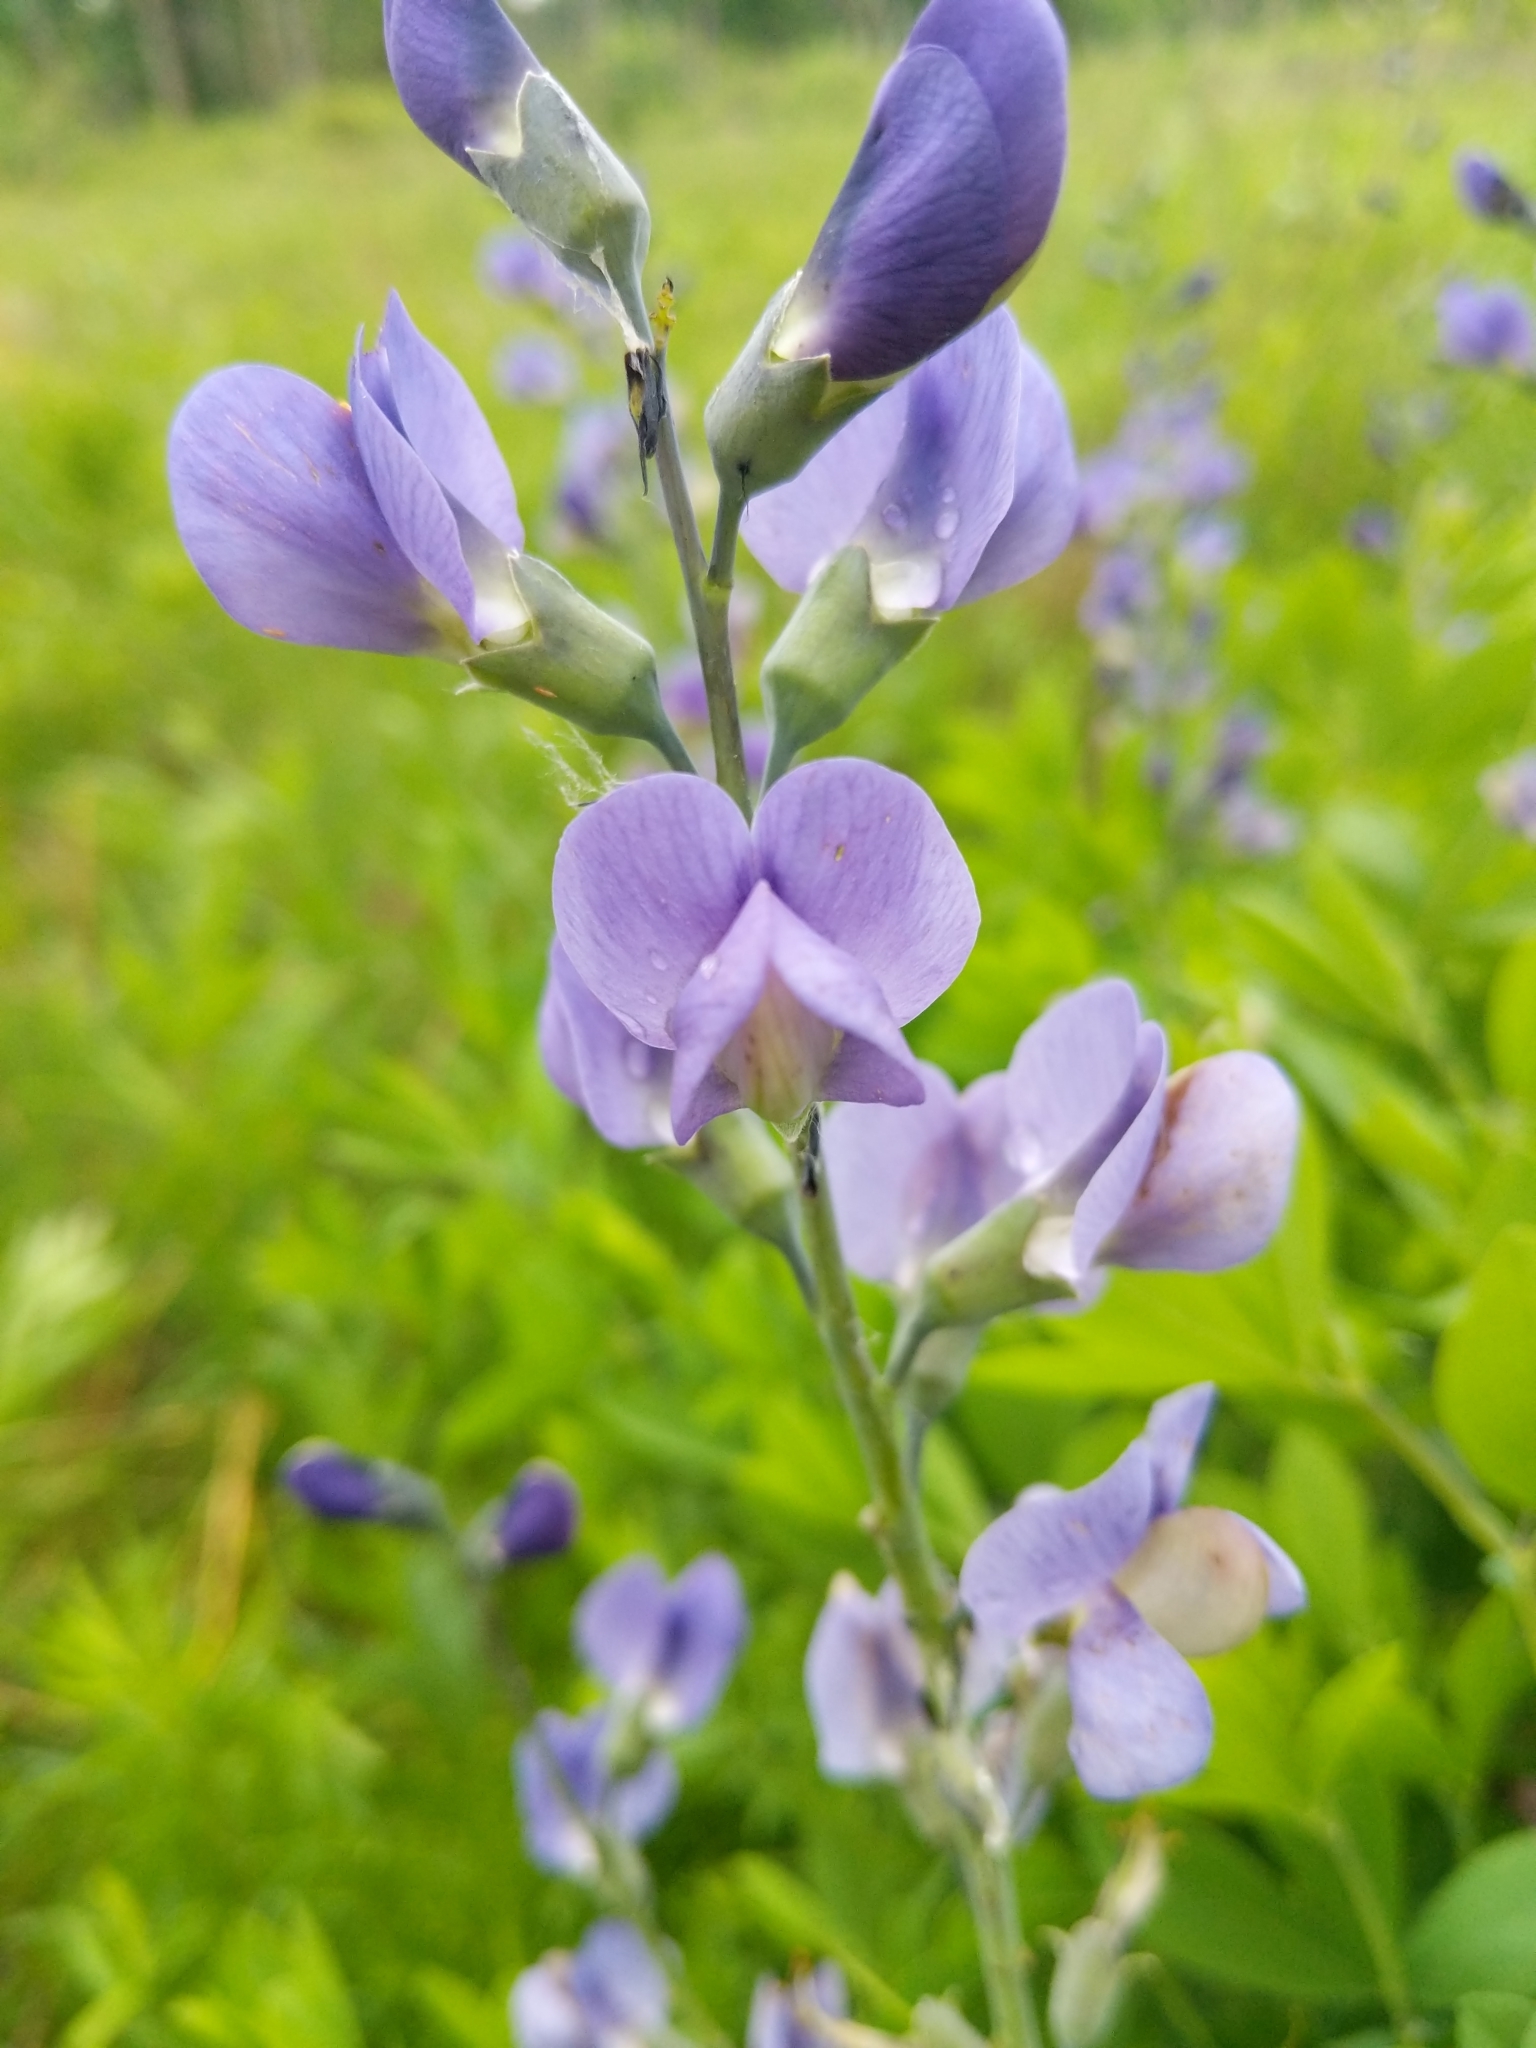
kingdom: Plantae
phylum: Tracheophyta
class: Magnoliopsida
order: Fabales
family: Fabaceae
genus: Baptisia
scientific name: Baptisia australis
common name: Blue false indigo
